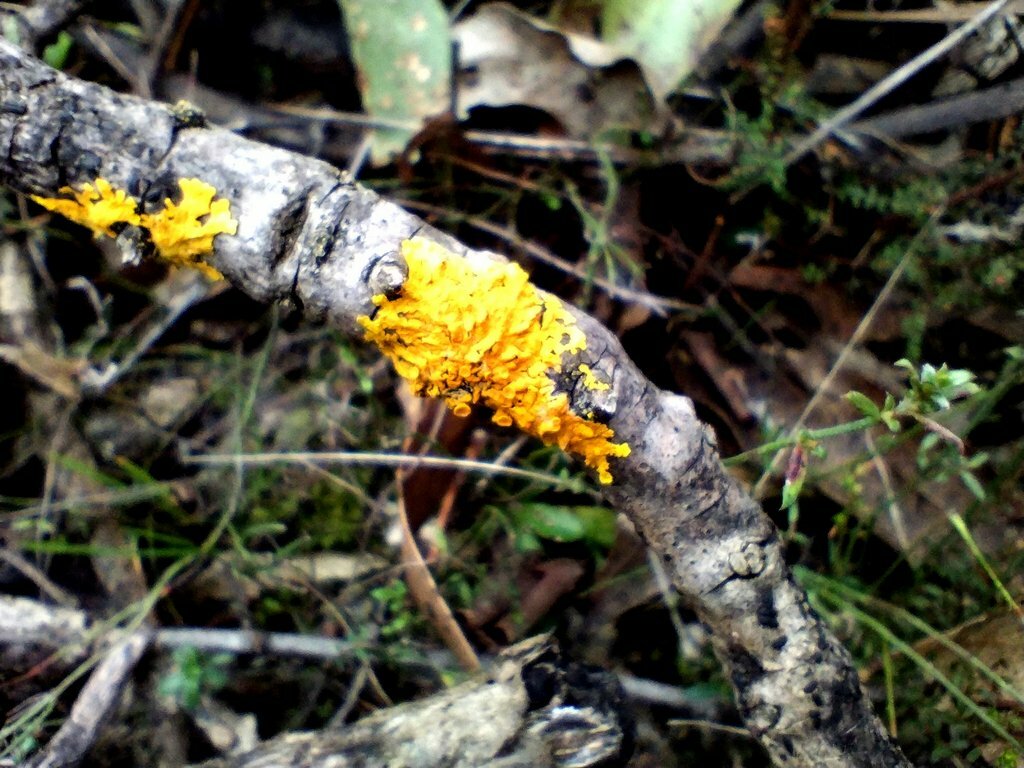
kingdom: Fungi
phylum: Ascomycota
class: Lecanoromycetes
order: Teloschistales
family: Teloschistaceae
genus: Xanthoria
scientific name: Xanthoria parietina
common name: Common orange lichen
